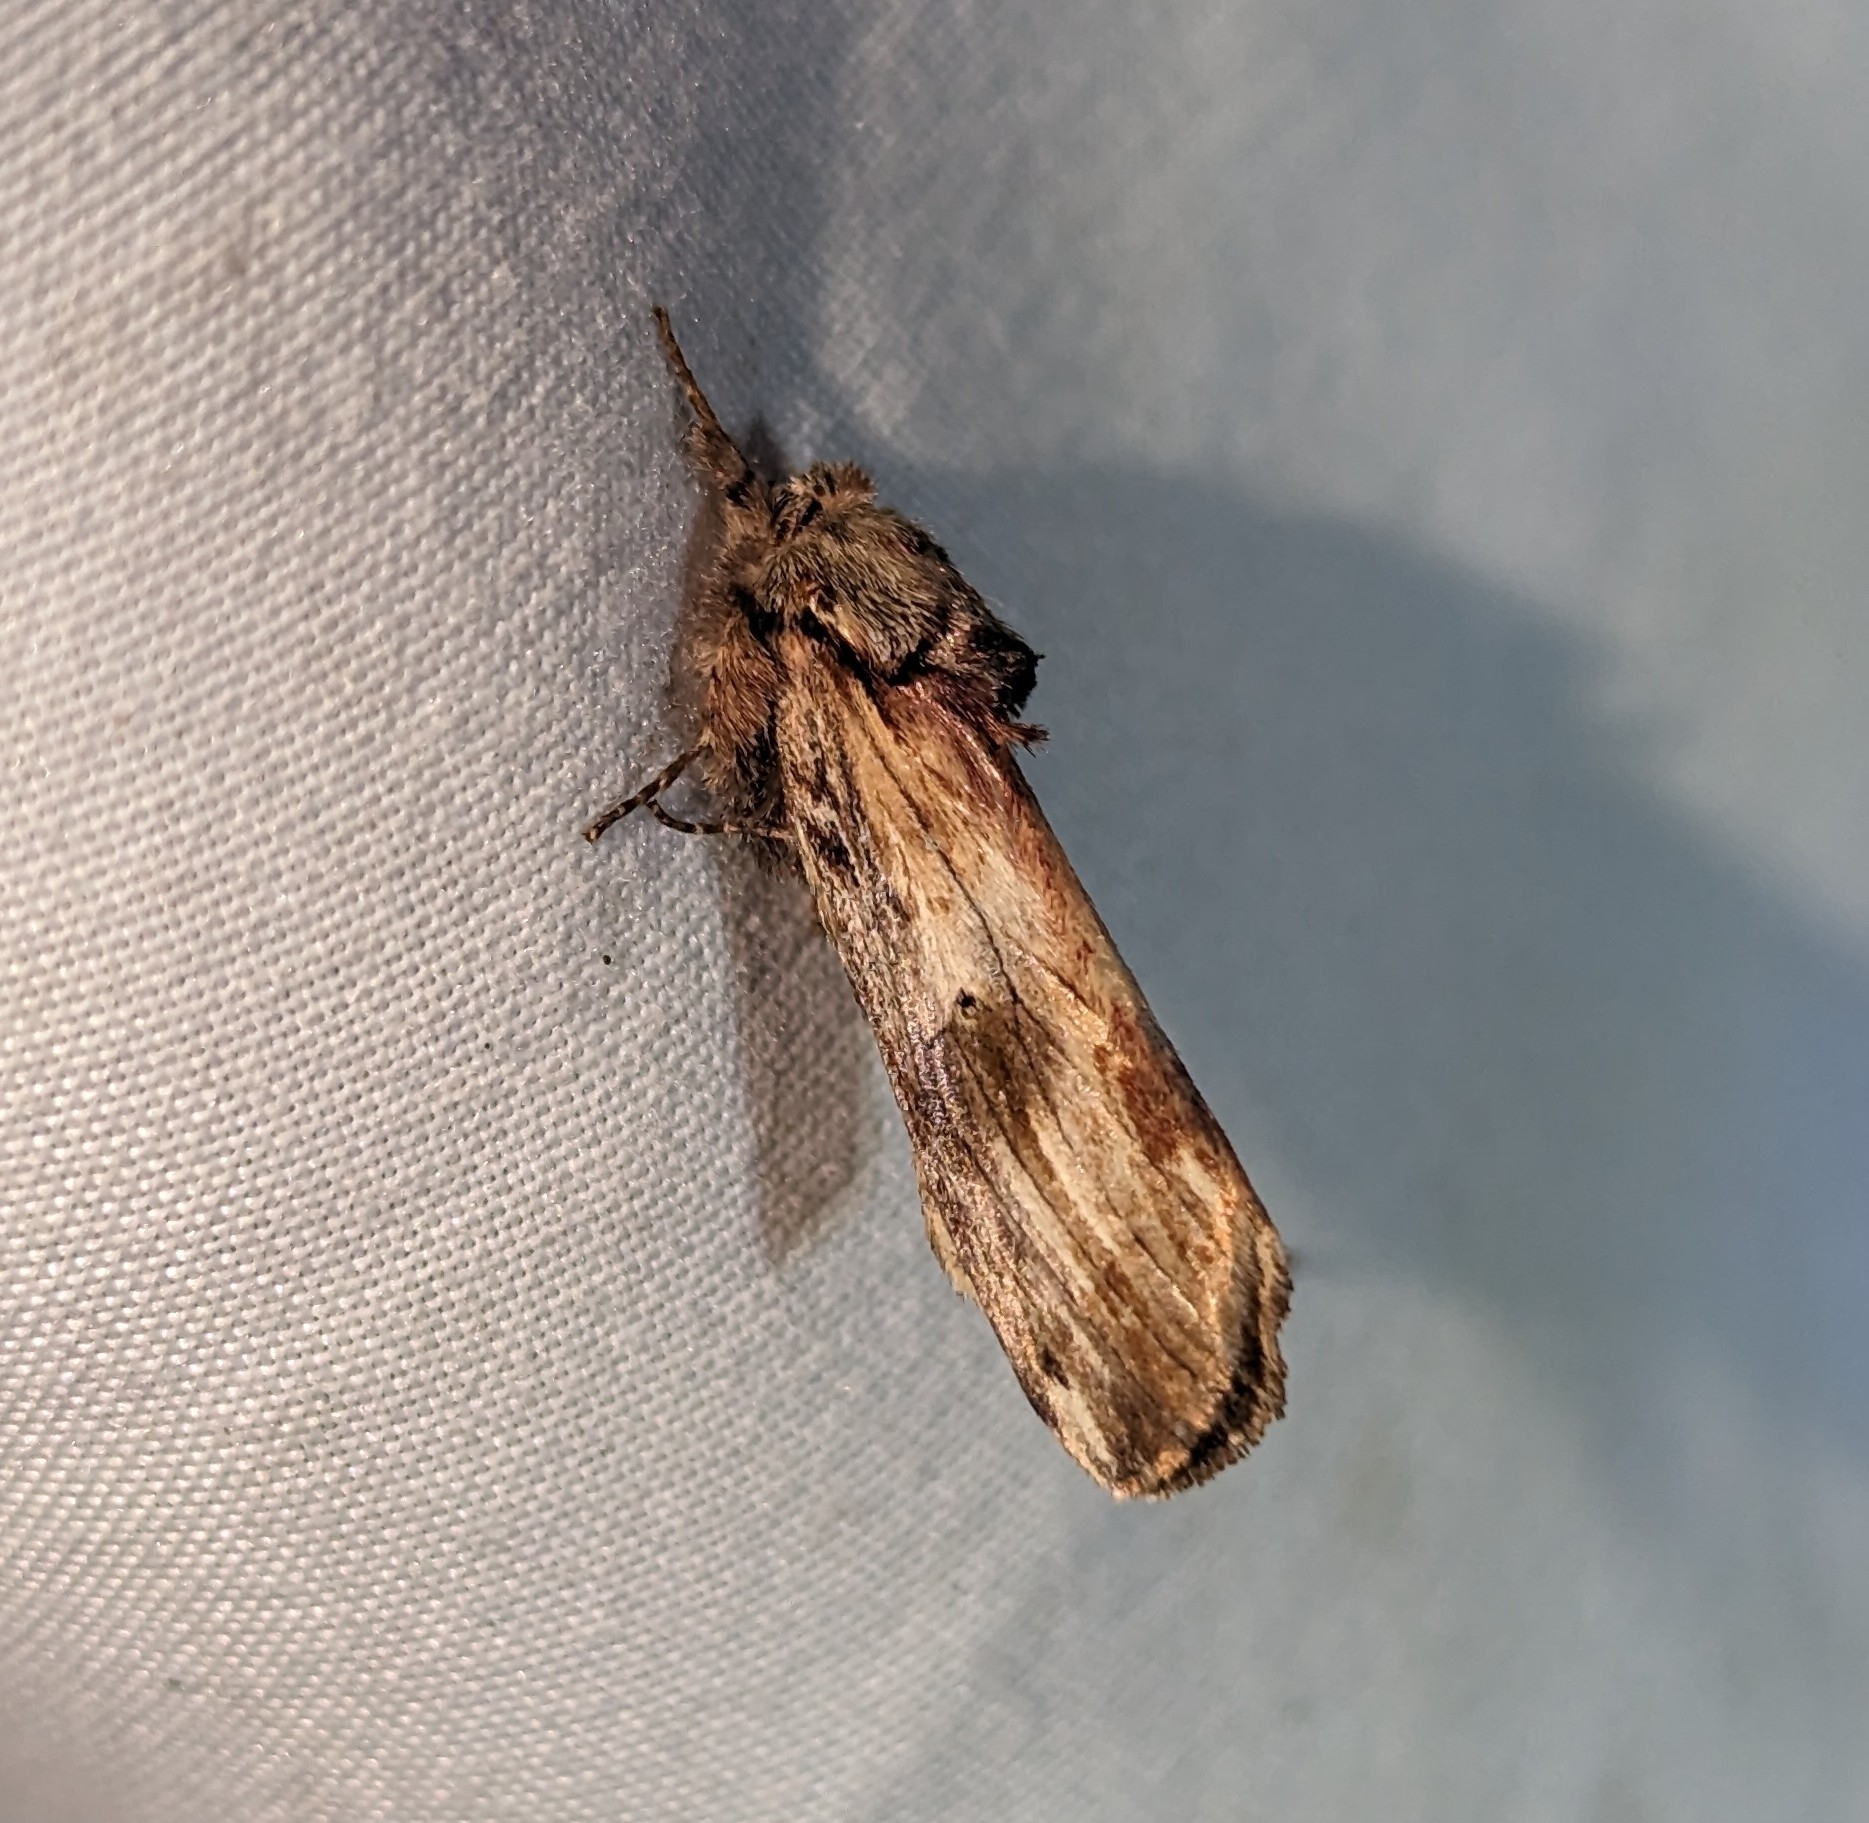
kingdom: Animalia
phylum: Arthropoda
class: Insecta
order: Lepidoptera
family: Notodontidae
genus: Schizura
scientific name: Schizura
